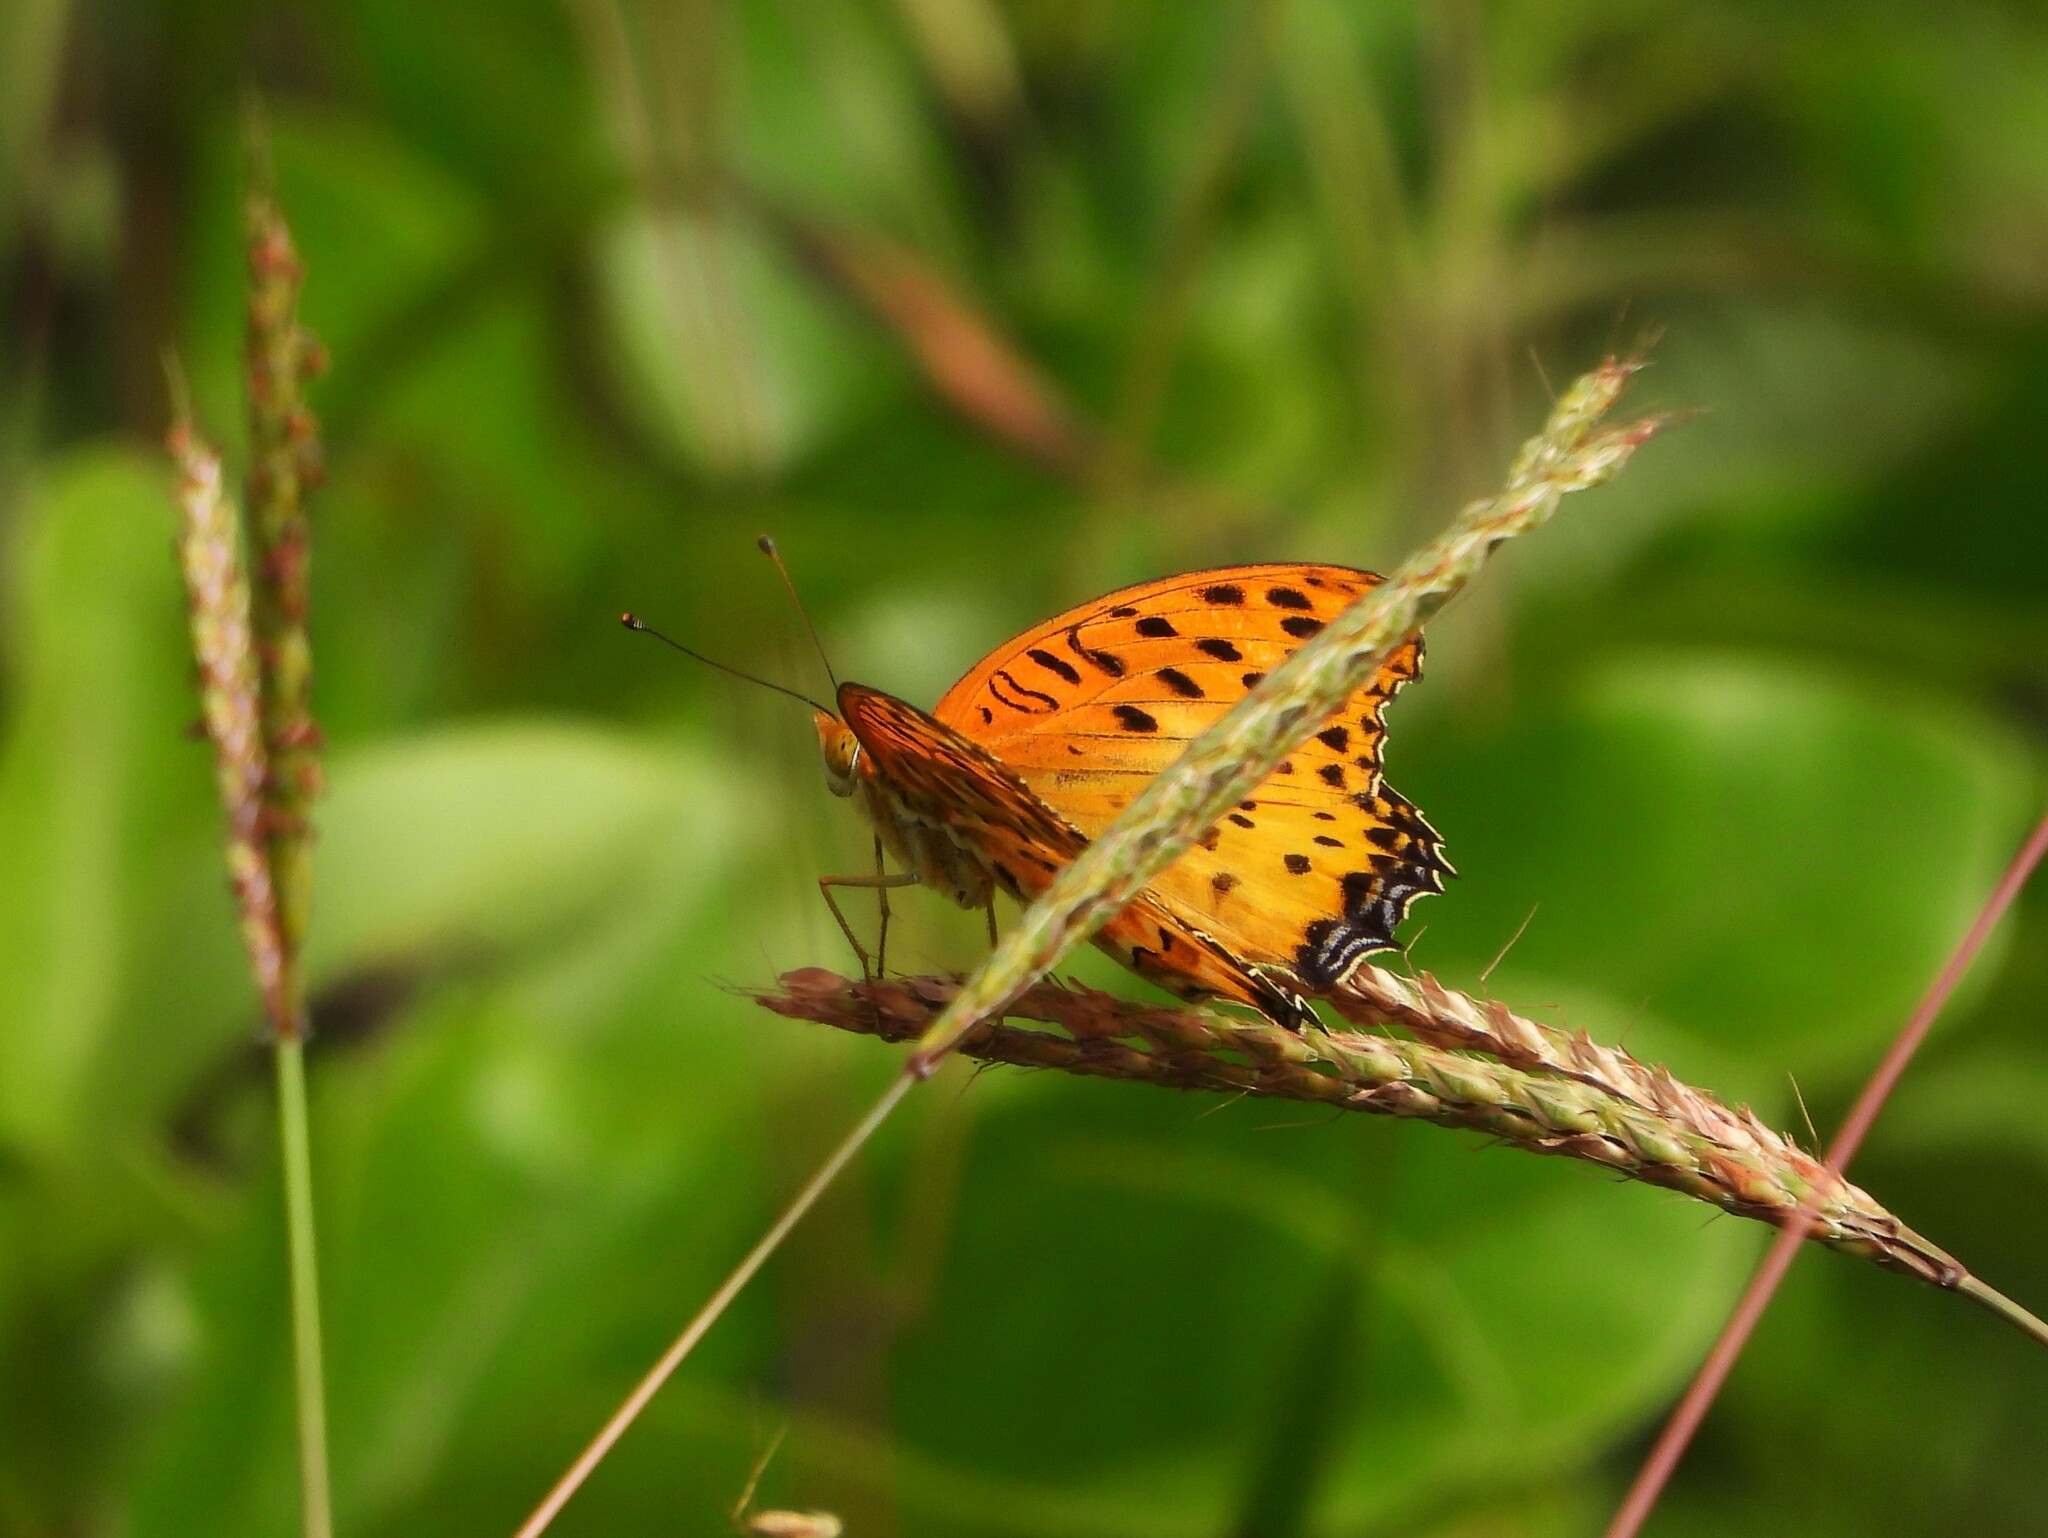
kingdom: Animalia
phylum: Arthropoda
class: Insecta
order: Lepidoptera
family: Nymphalidae
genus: Argynnis
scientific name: Argynnis hyperbius
